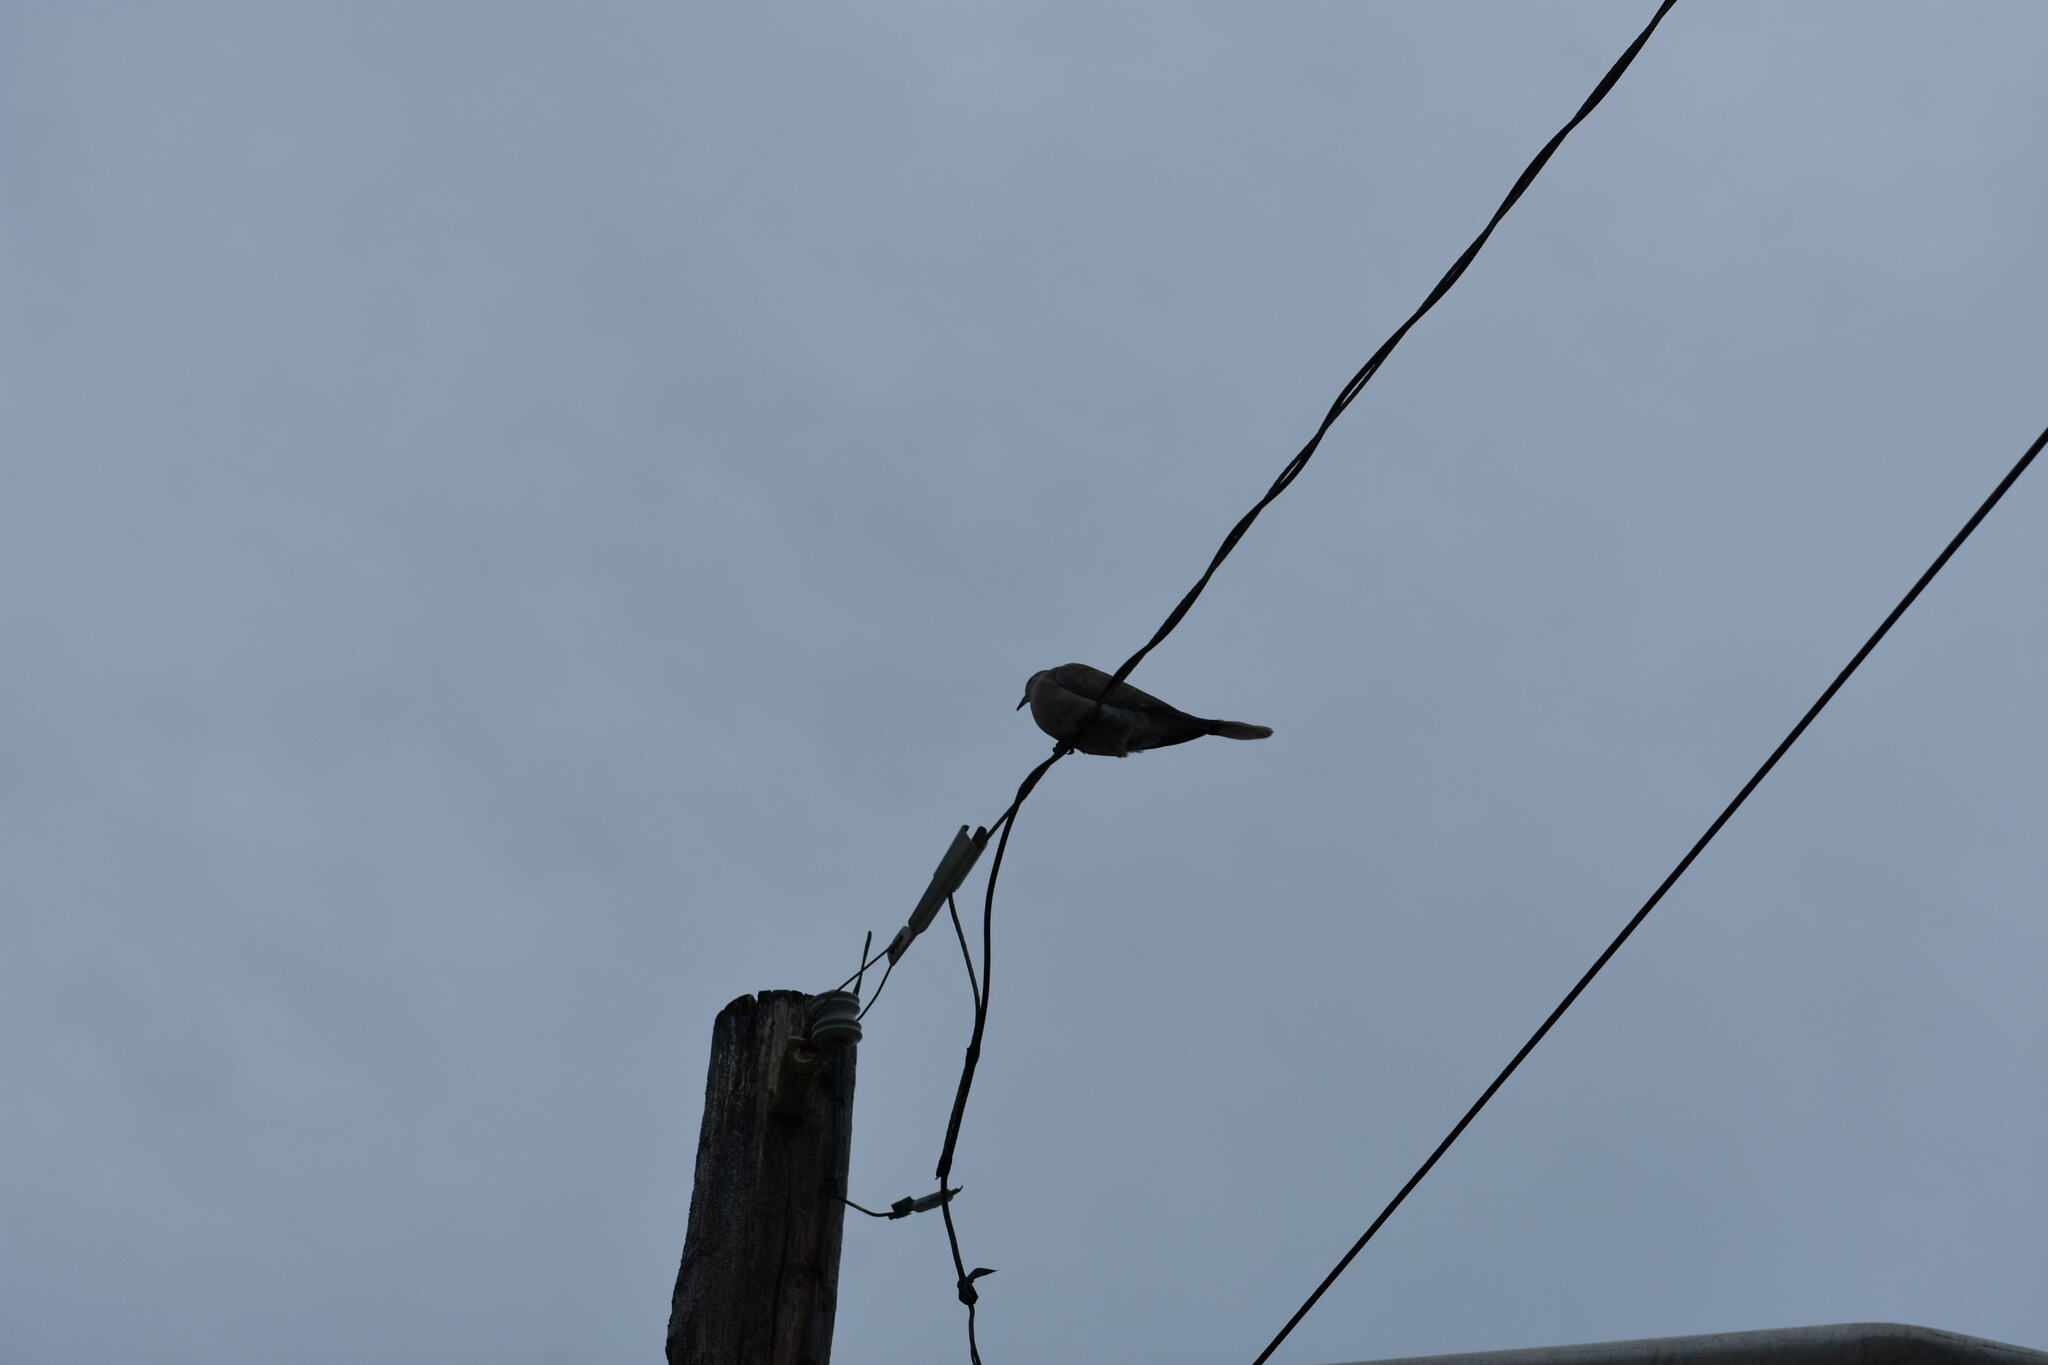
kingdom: Animalia
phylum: Chordata
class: Aves
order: Columbiformes
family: Columbidae
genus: Zenaida
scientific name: Zenaida macroura
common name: Mourning dove
